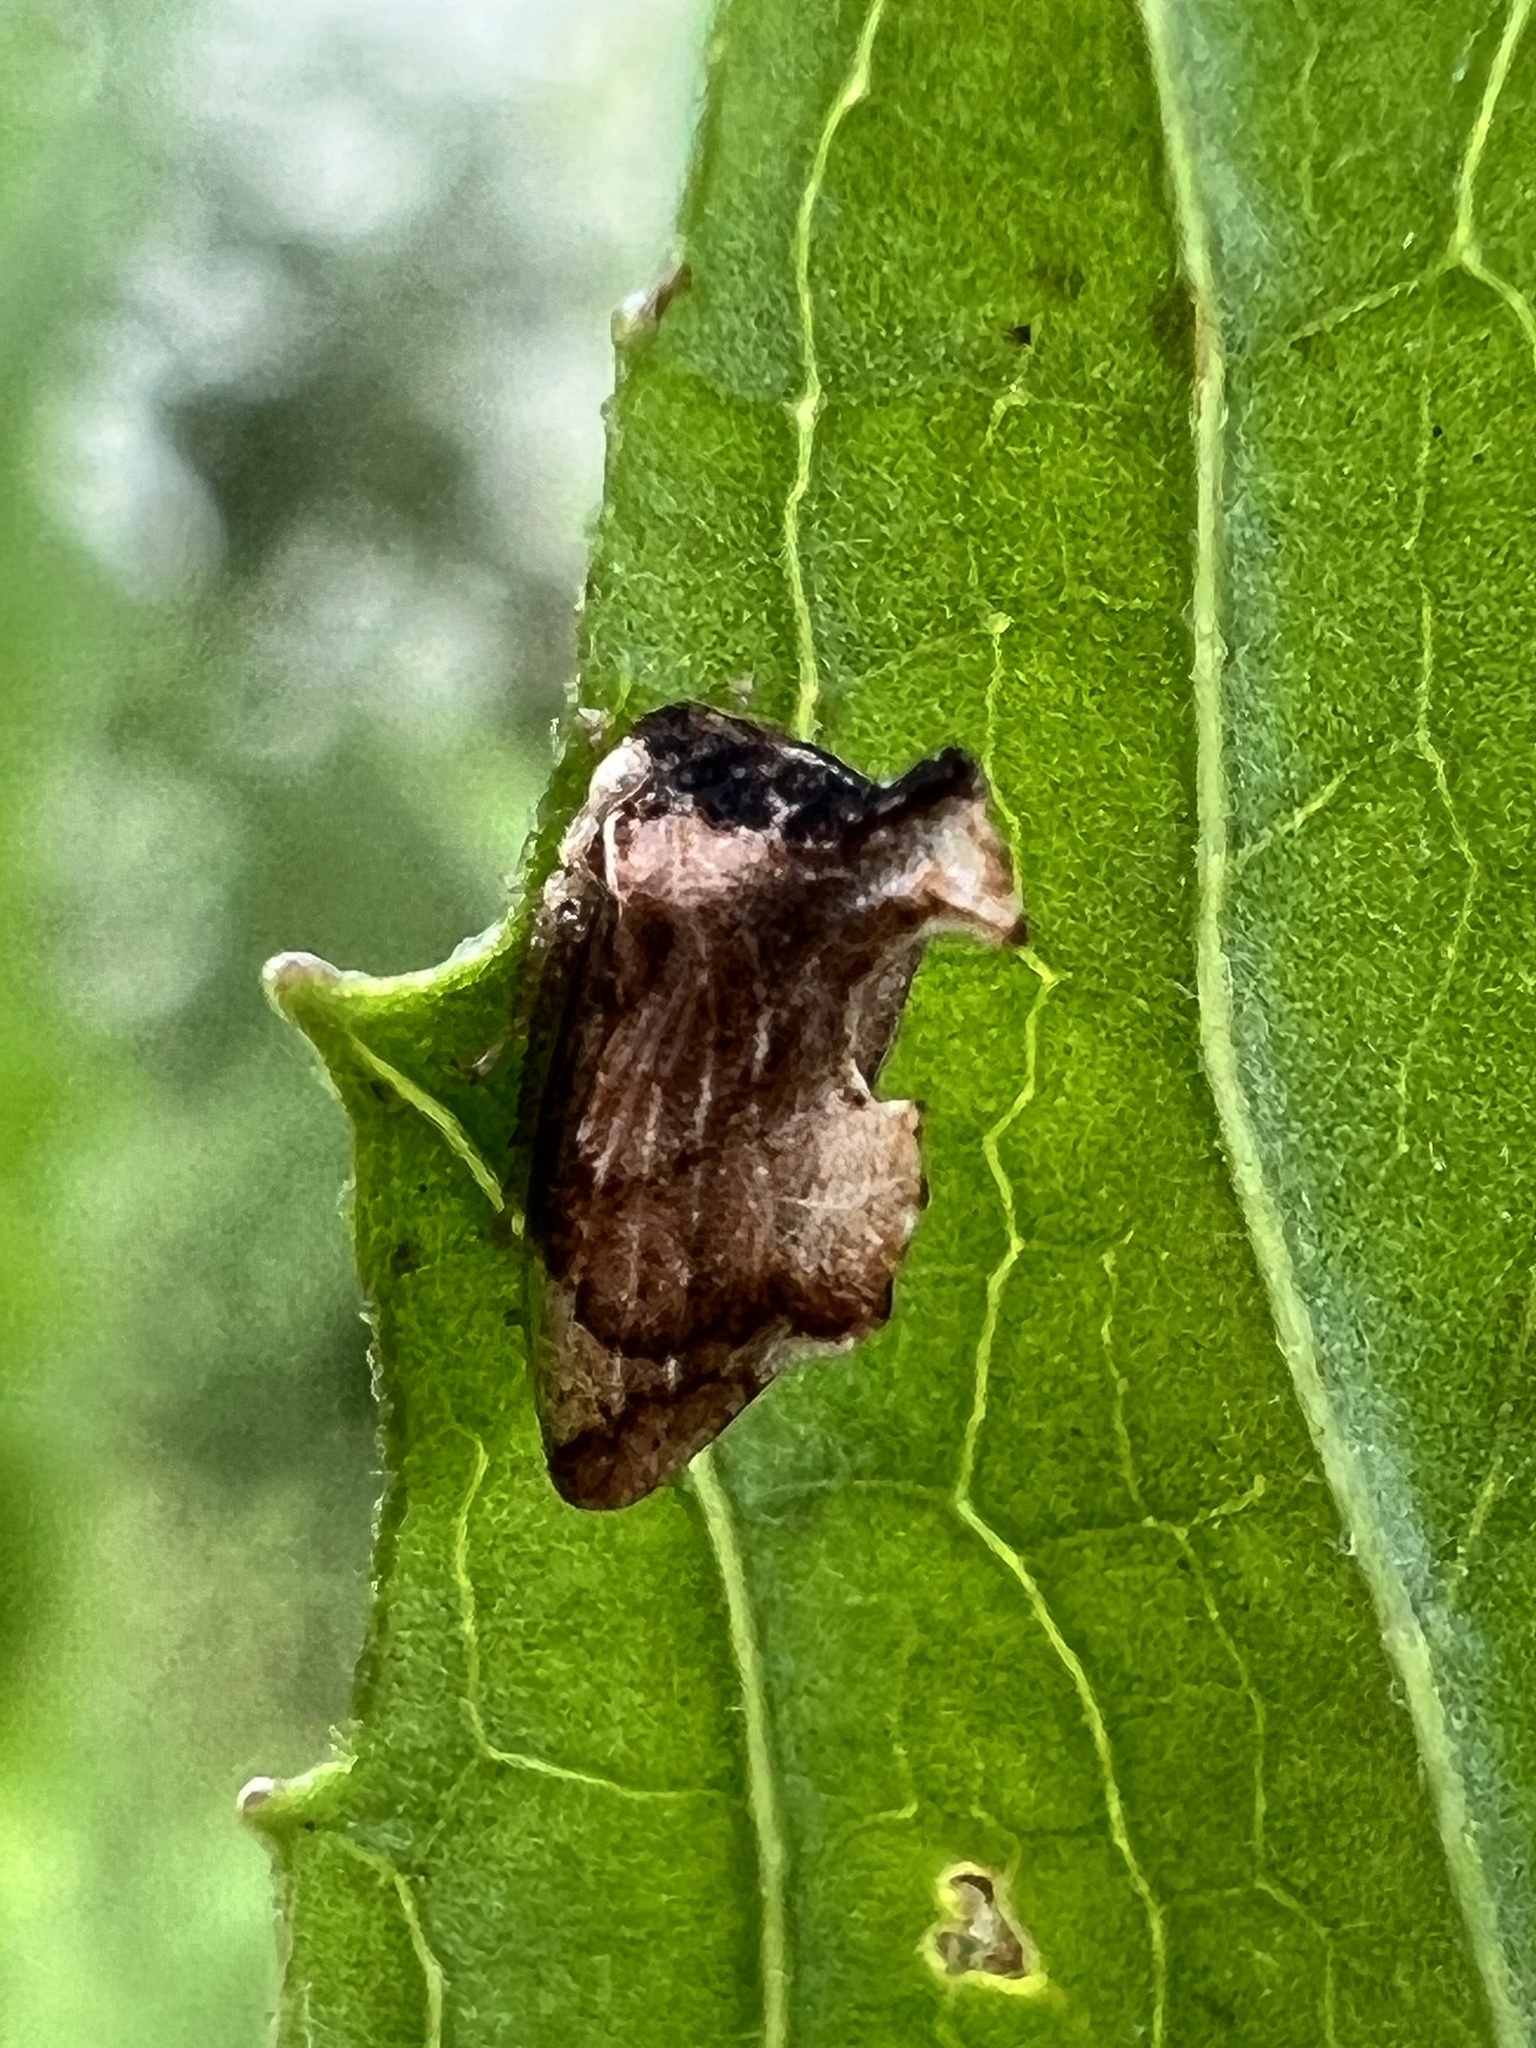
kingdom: Animalia
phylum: Arthropoda
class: Insecta
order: Hemiptera
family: Membracidae
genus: Entylia
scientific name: Entylia carinata
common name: Keeled treehopper
